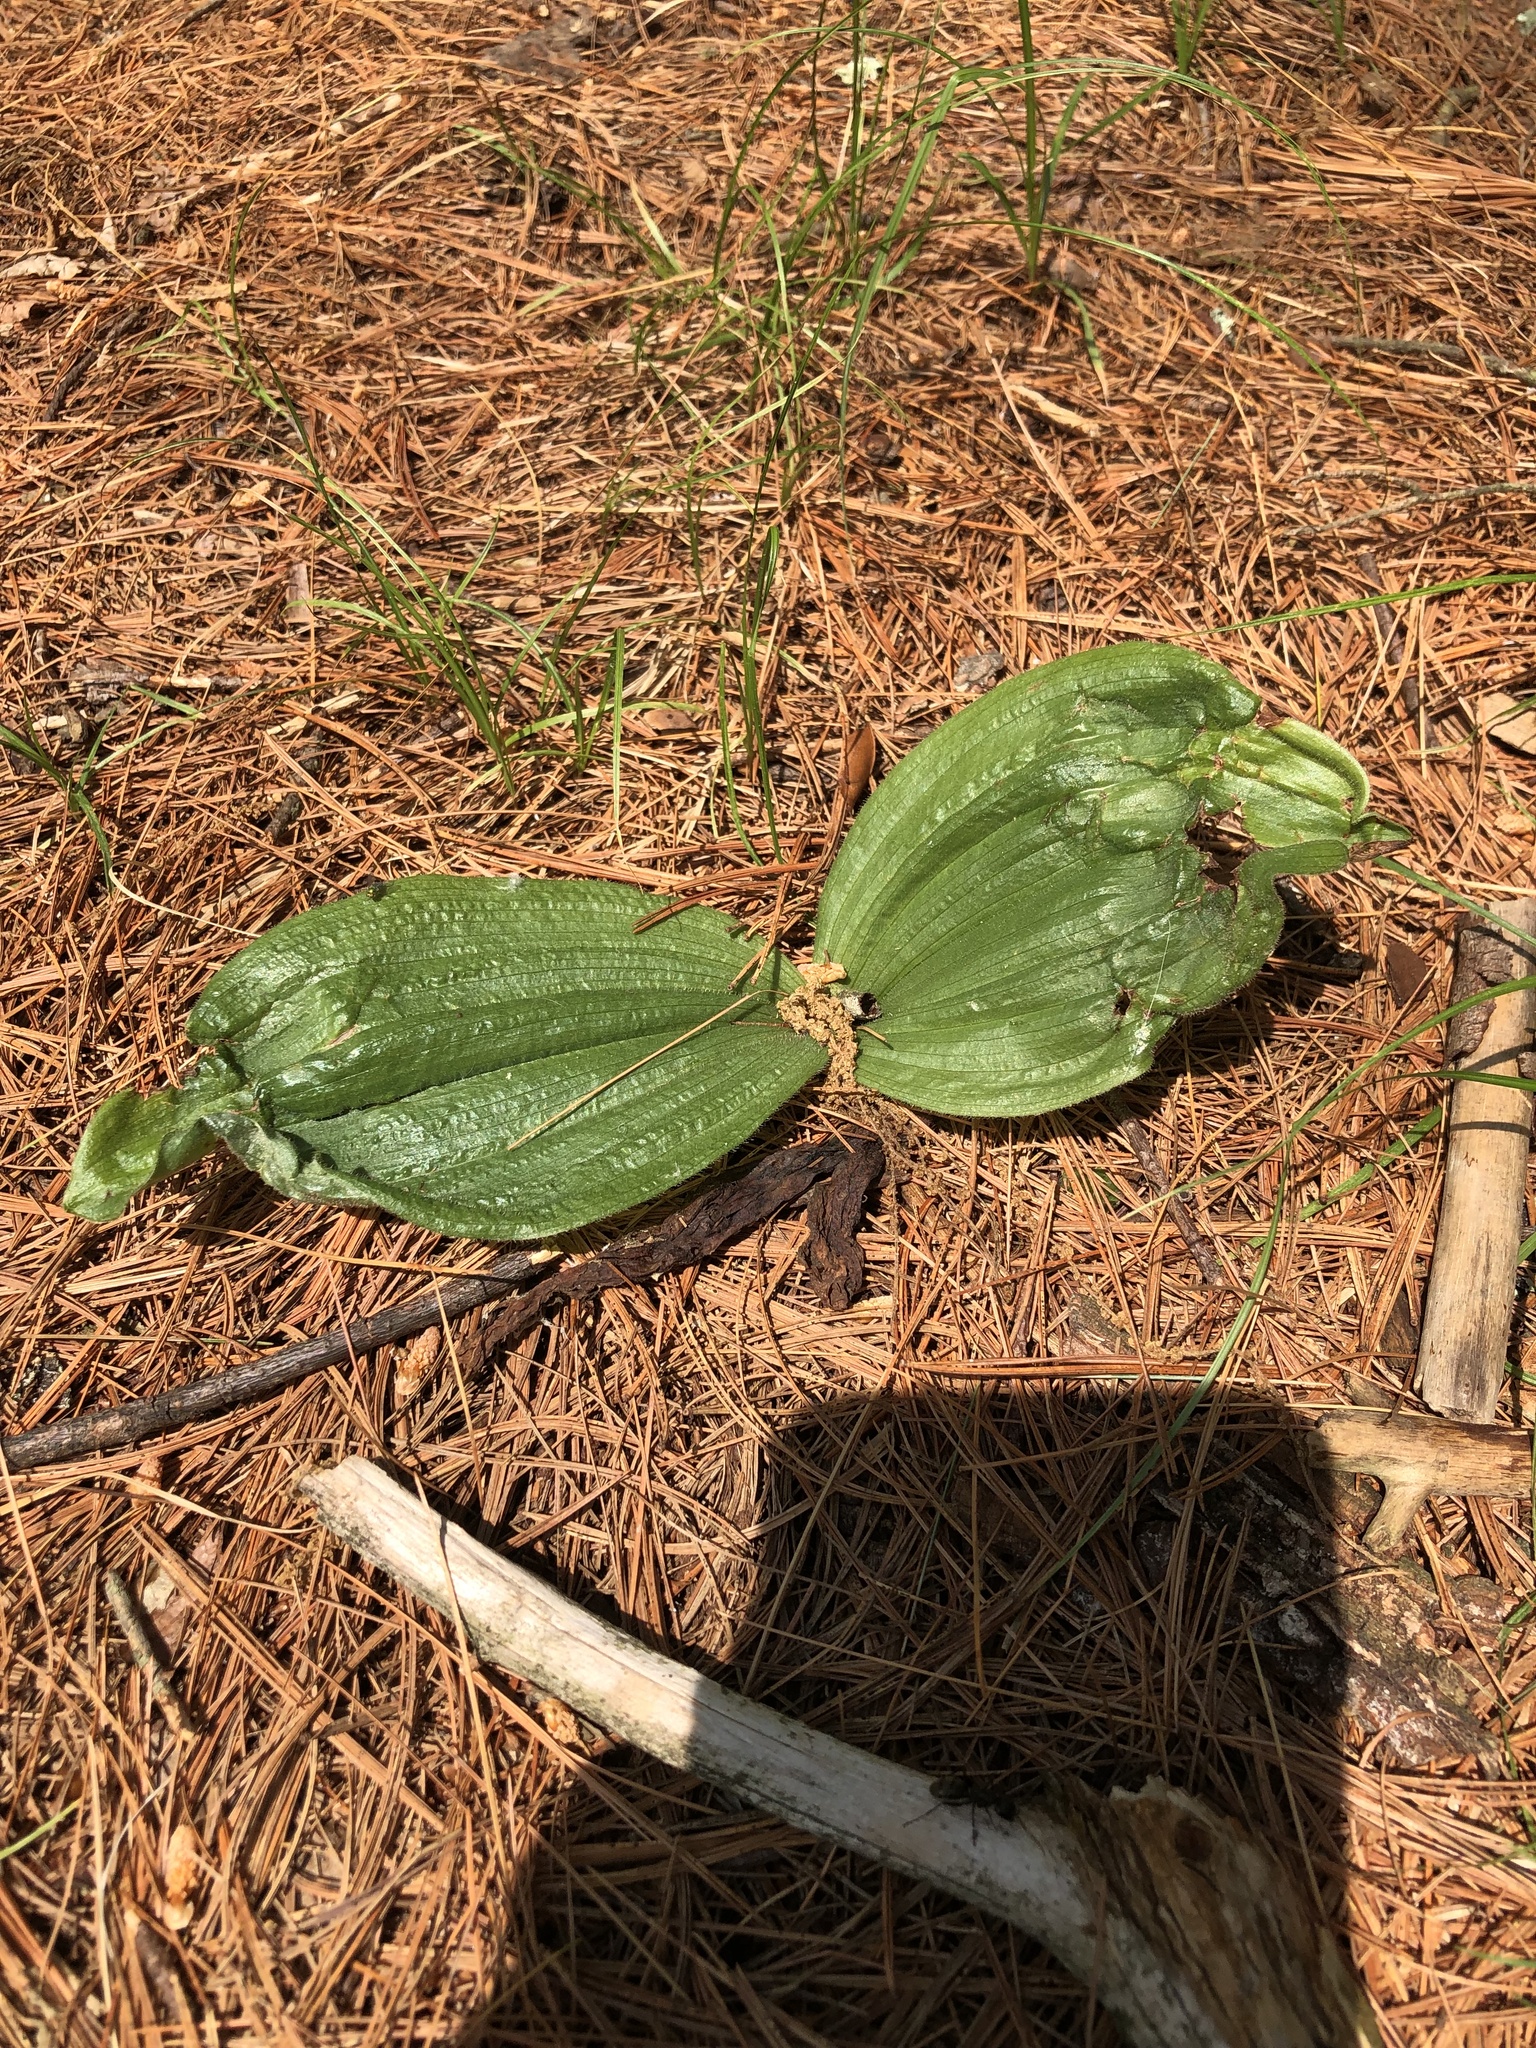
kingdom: Plantae
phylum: Tracheophyta
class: Liliopsida
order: Asparagales
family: Orchidaceae
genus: Cypripedium
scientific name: Cypripedium acaule
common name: Pink lady's-slipper
